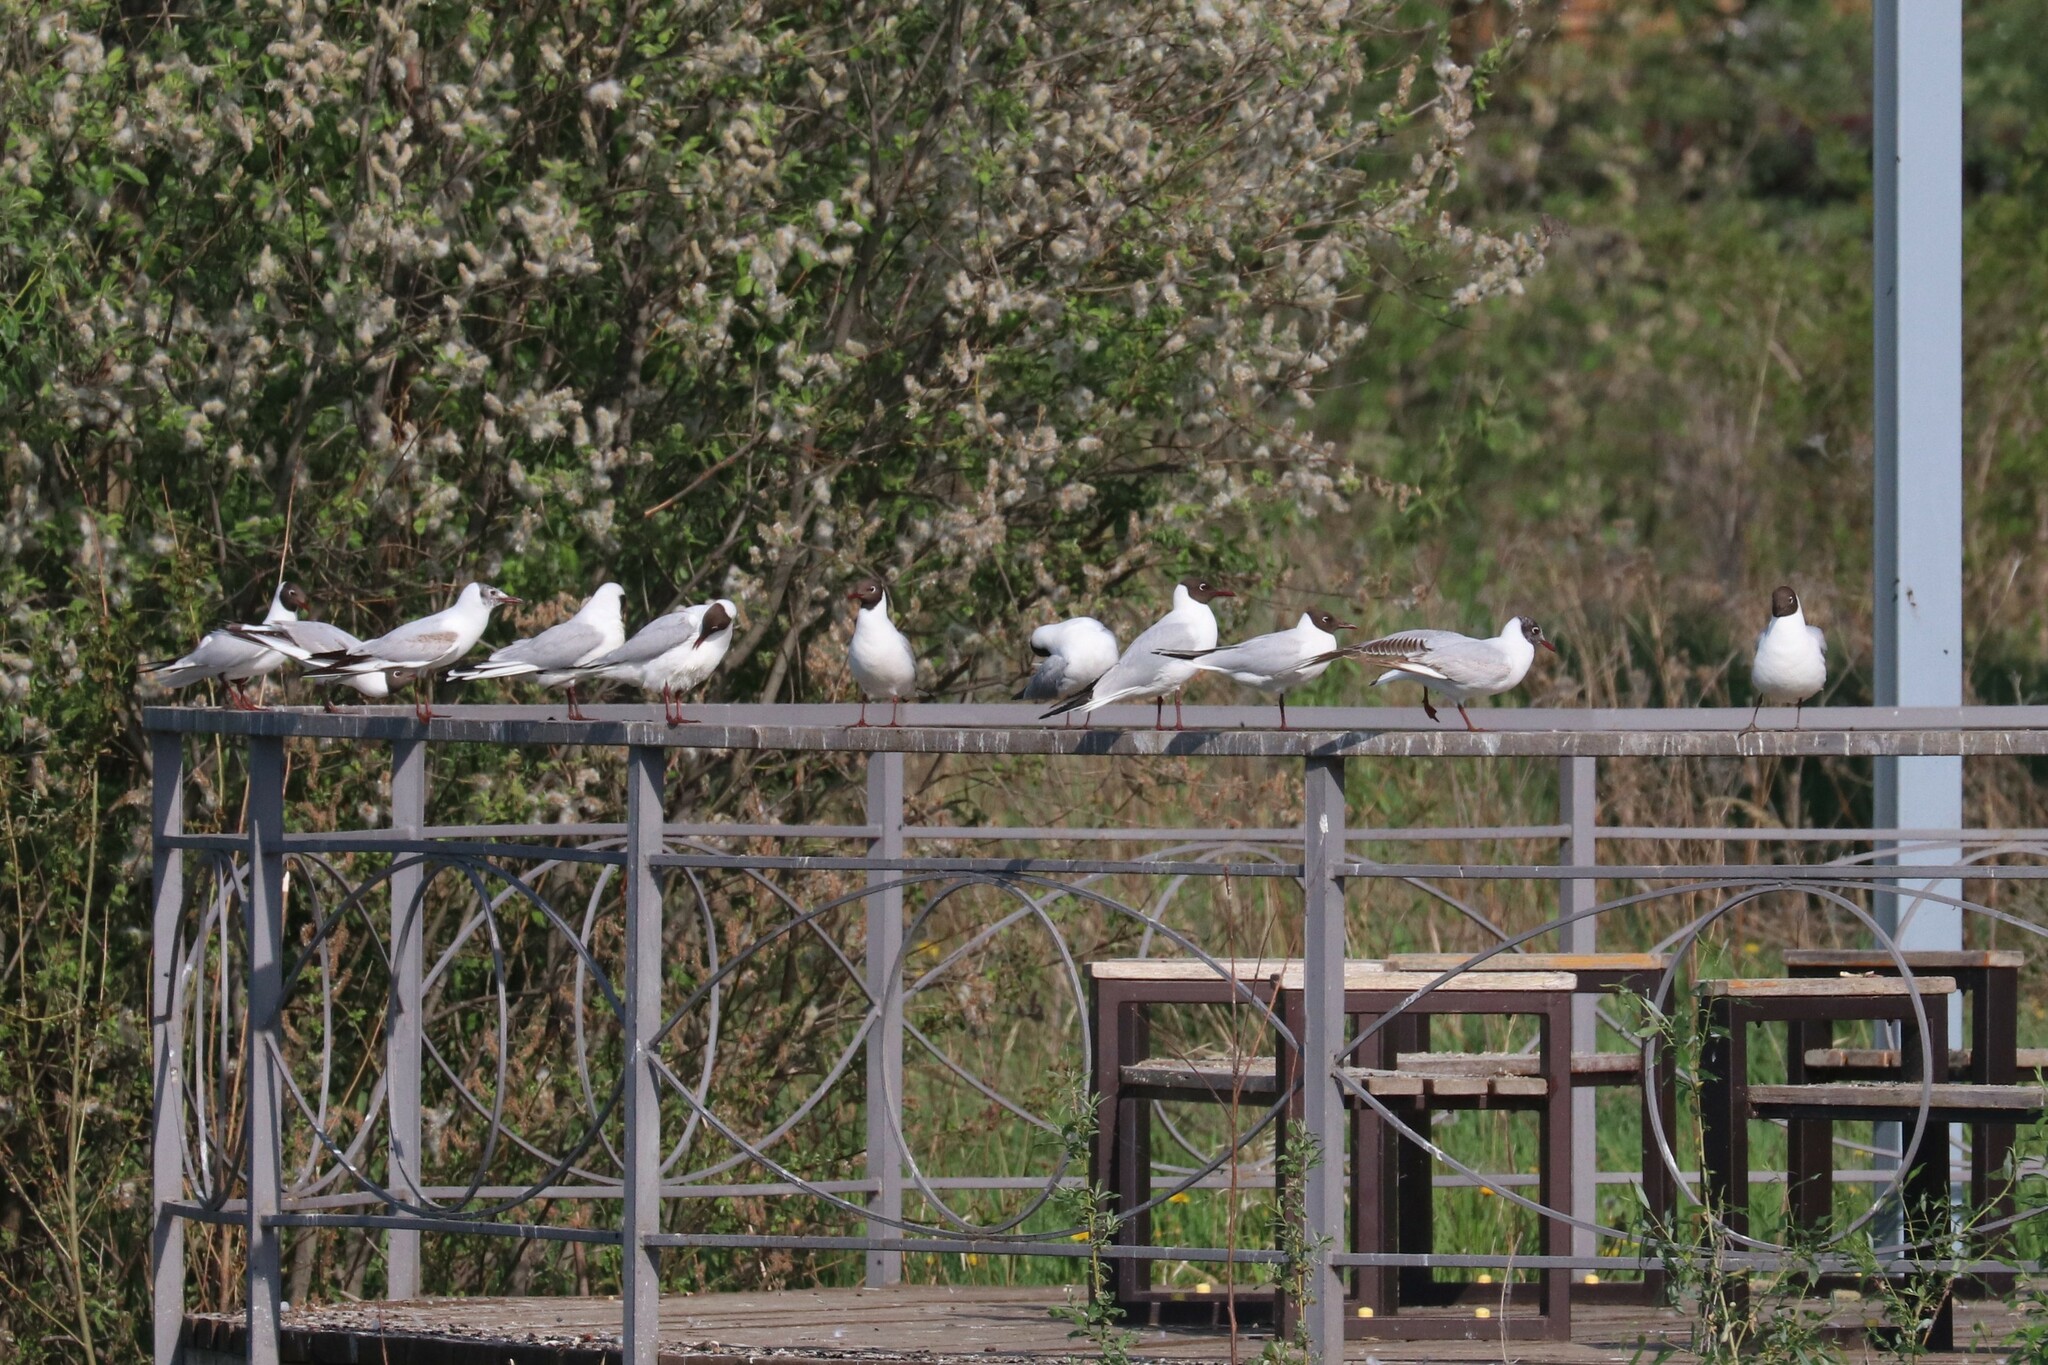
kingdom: Animalia
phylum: Chordata
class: Aves
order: Charadriiformes
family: Laridae
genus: Chroicocephalus
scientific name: Chroicocephalus ridibundus
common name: Black-headed gull
